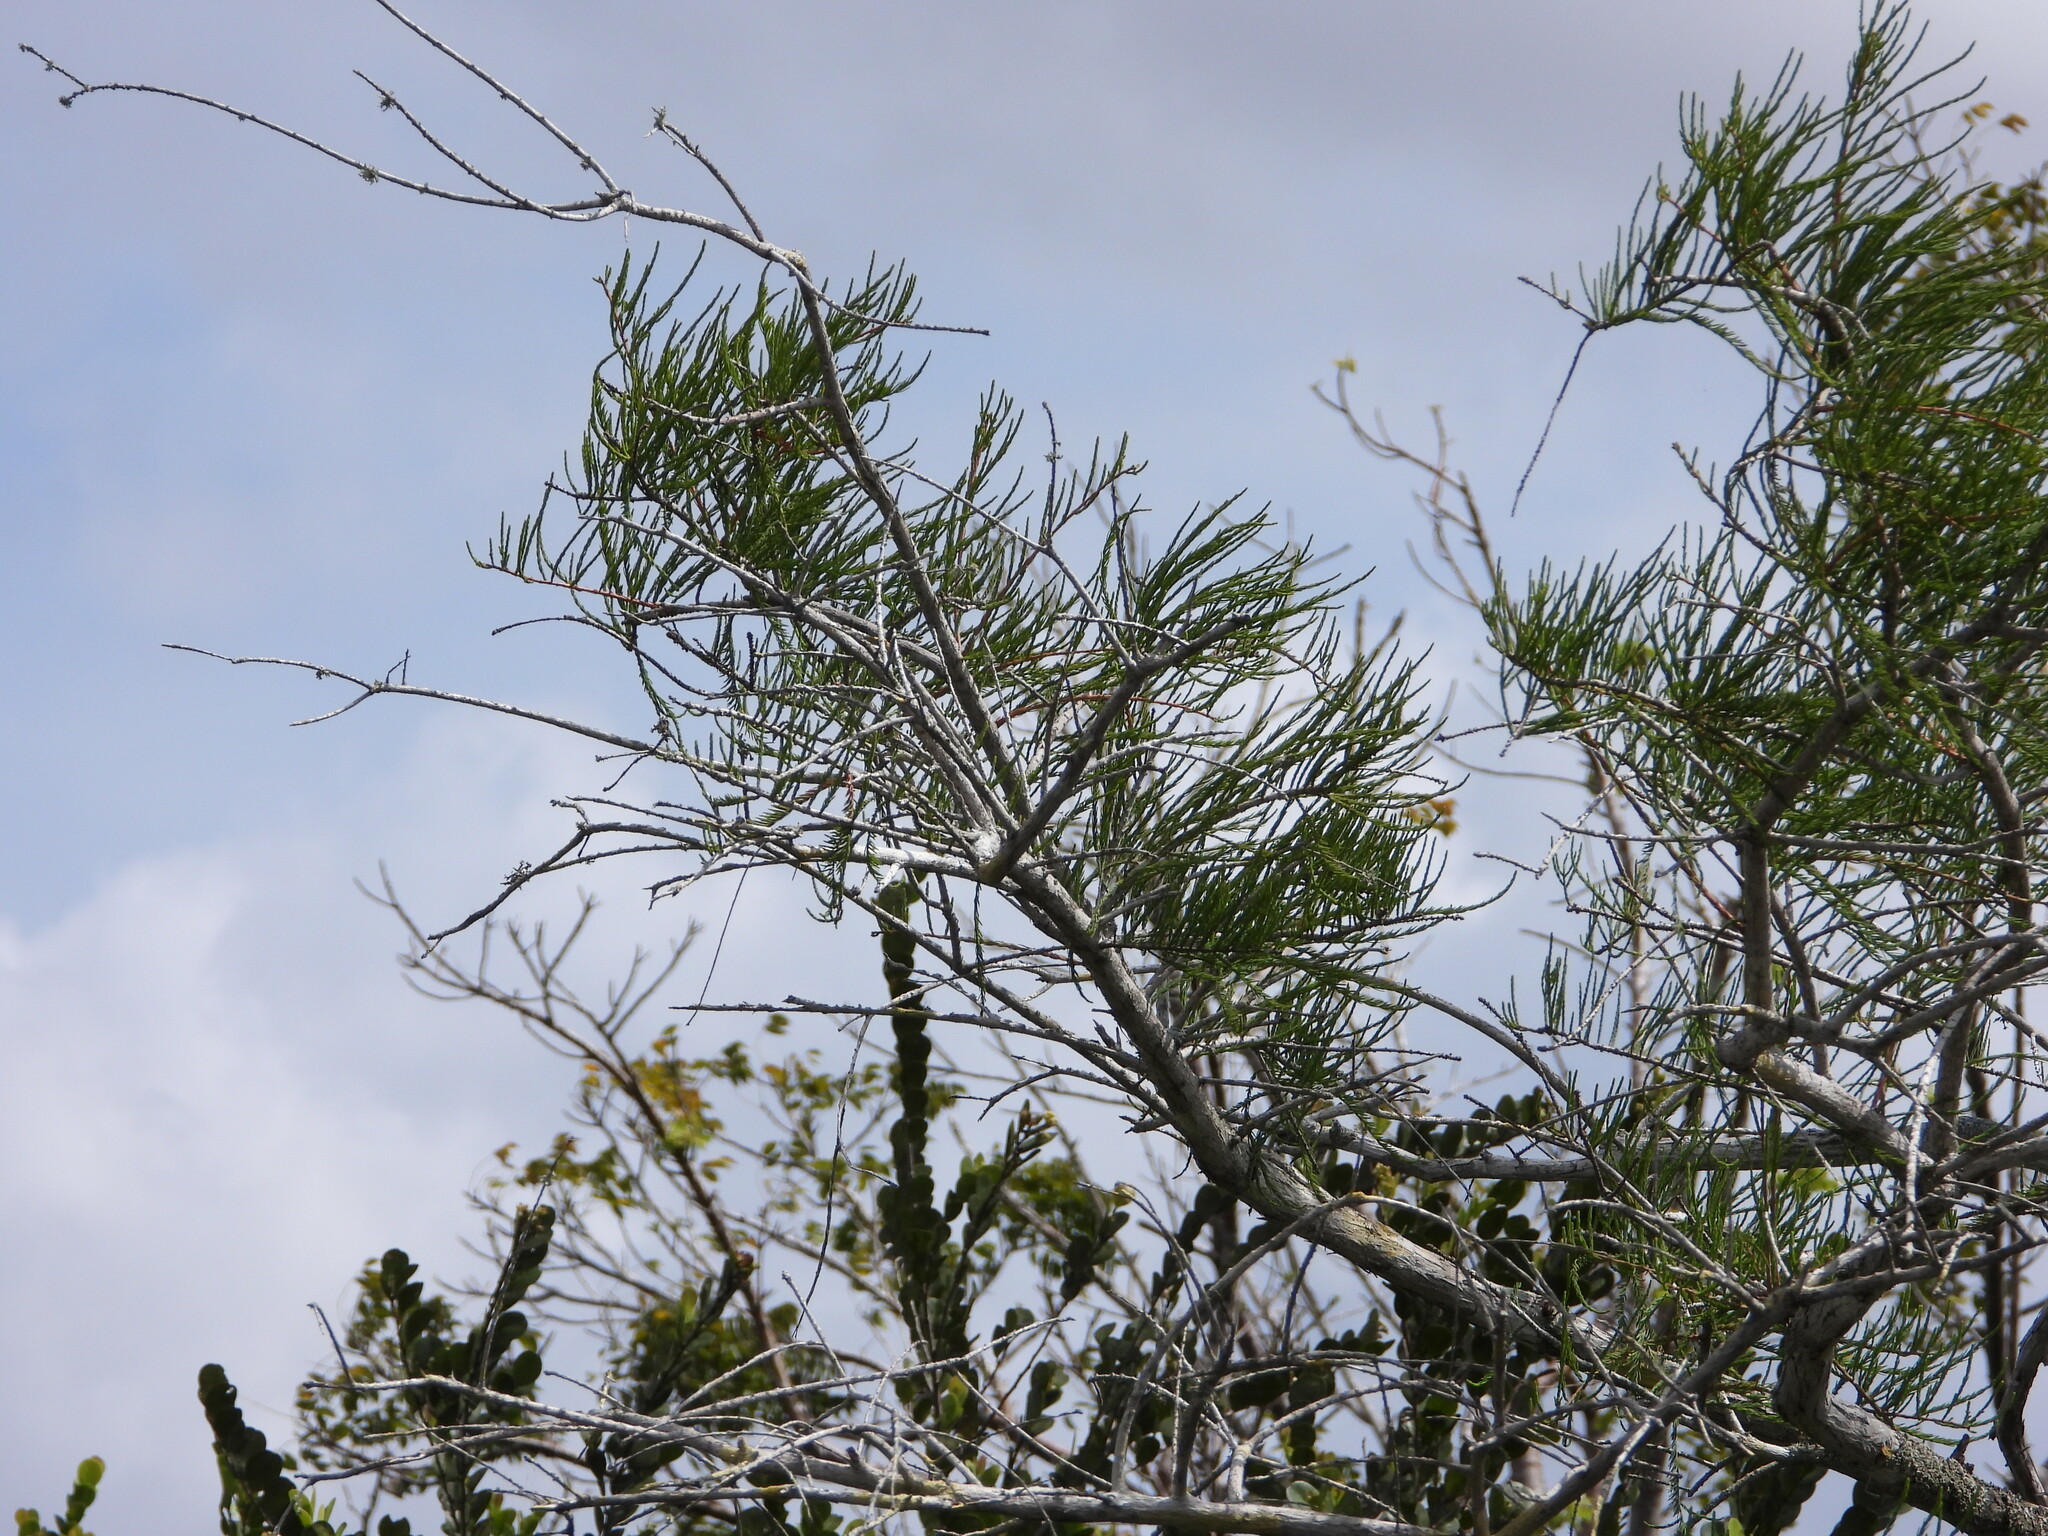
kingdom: Plantae
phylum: Tracheophyta
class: Pinopsida
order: Pinales
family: Cupressaceae
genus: Taxodium
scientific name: Taxodium distichum
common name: Bald cypress
